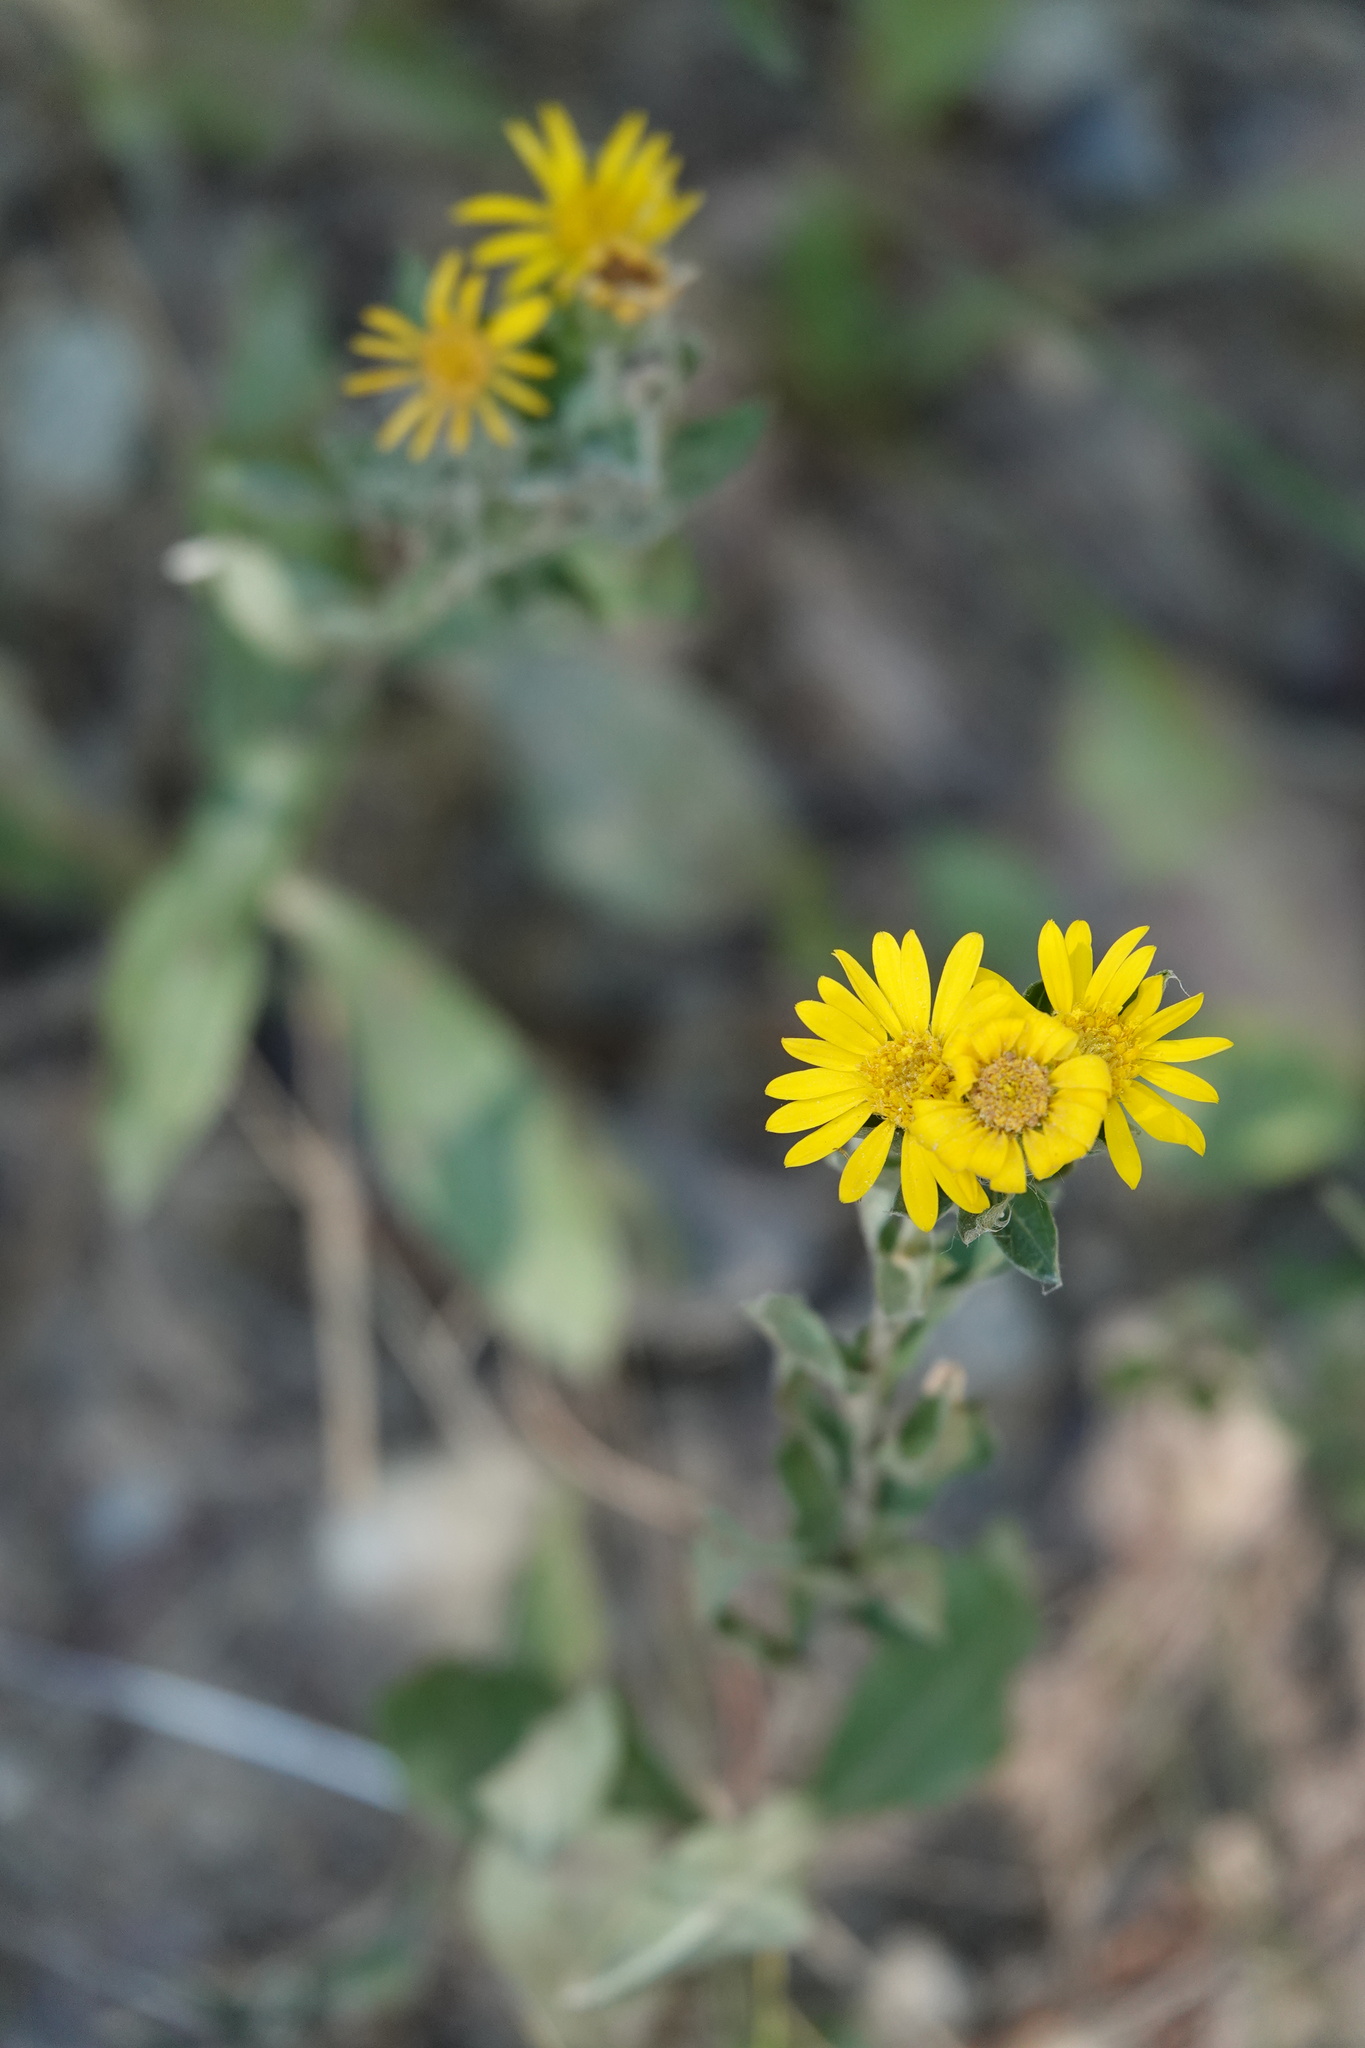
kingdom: Plantae
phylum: Tracheophyta
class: Magnoliopsida
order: Asterales
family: Asteraceae
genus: Chrysopsis
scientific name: Chrysopsis mariana
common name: Maryland golden-aster
